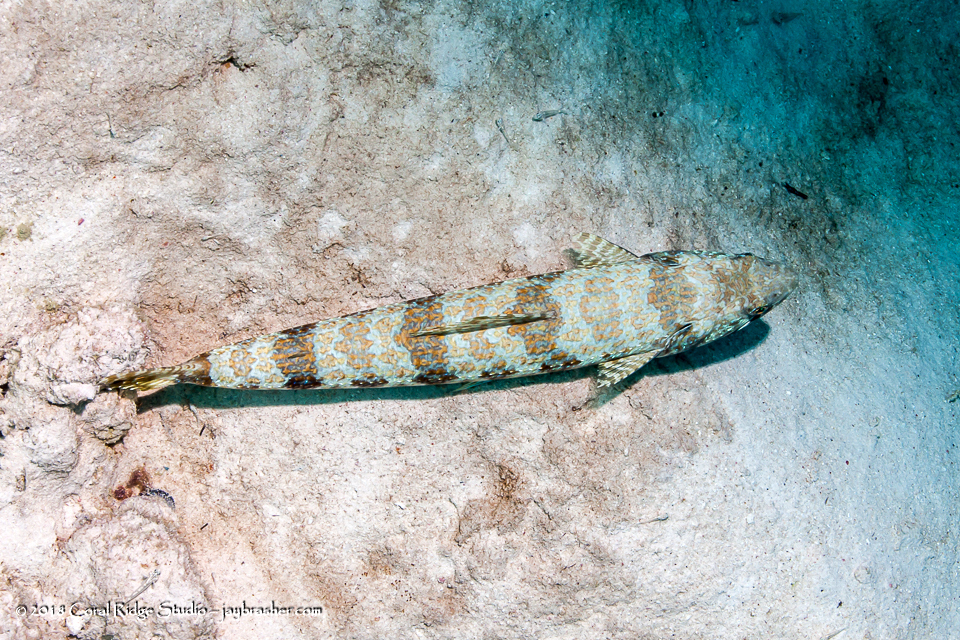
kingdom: Animalia
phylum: Chordata
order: Aulopiformes
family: Synodontidae
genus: Synodus
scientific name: Synodus intermedius
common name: Sand diver
